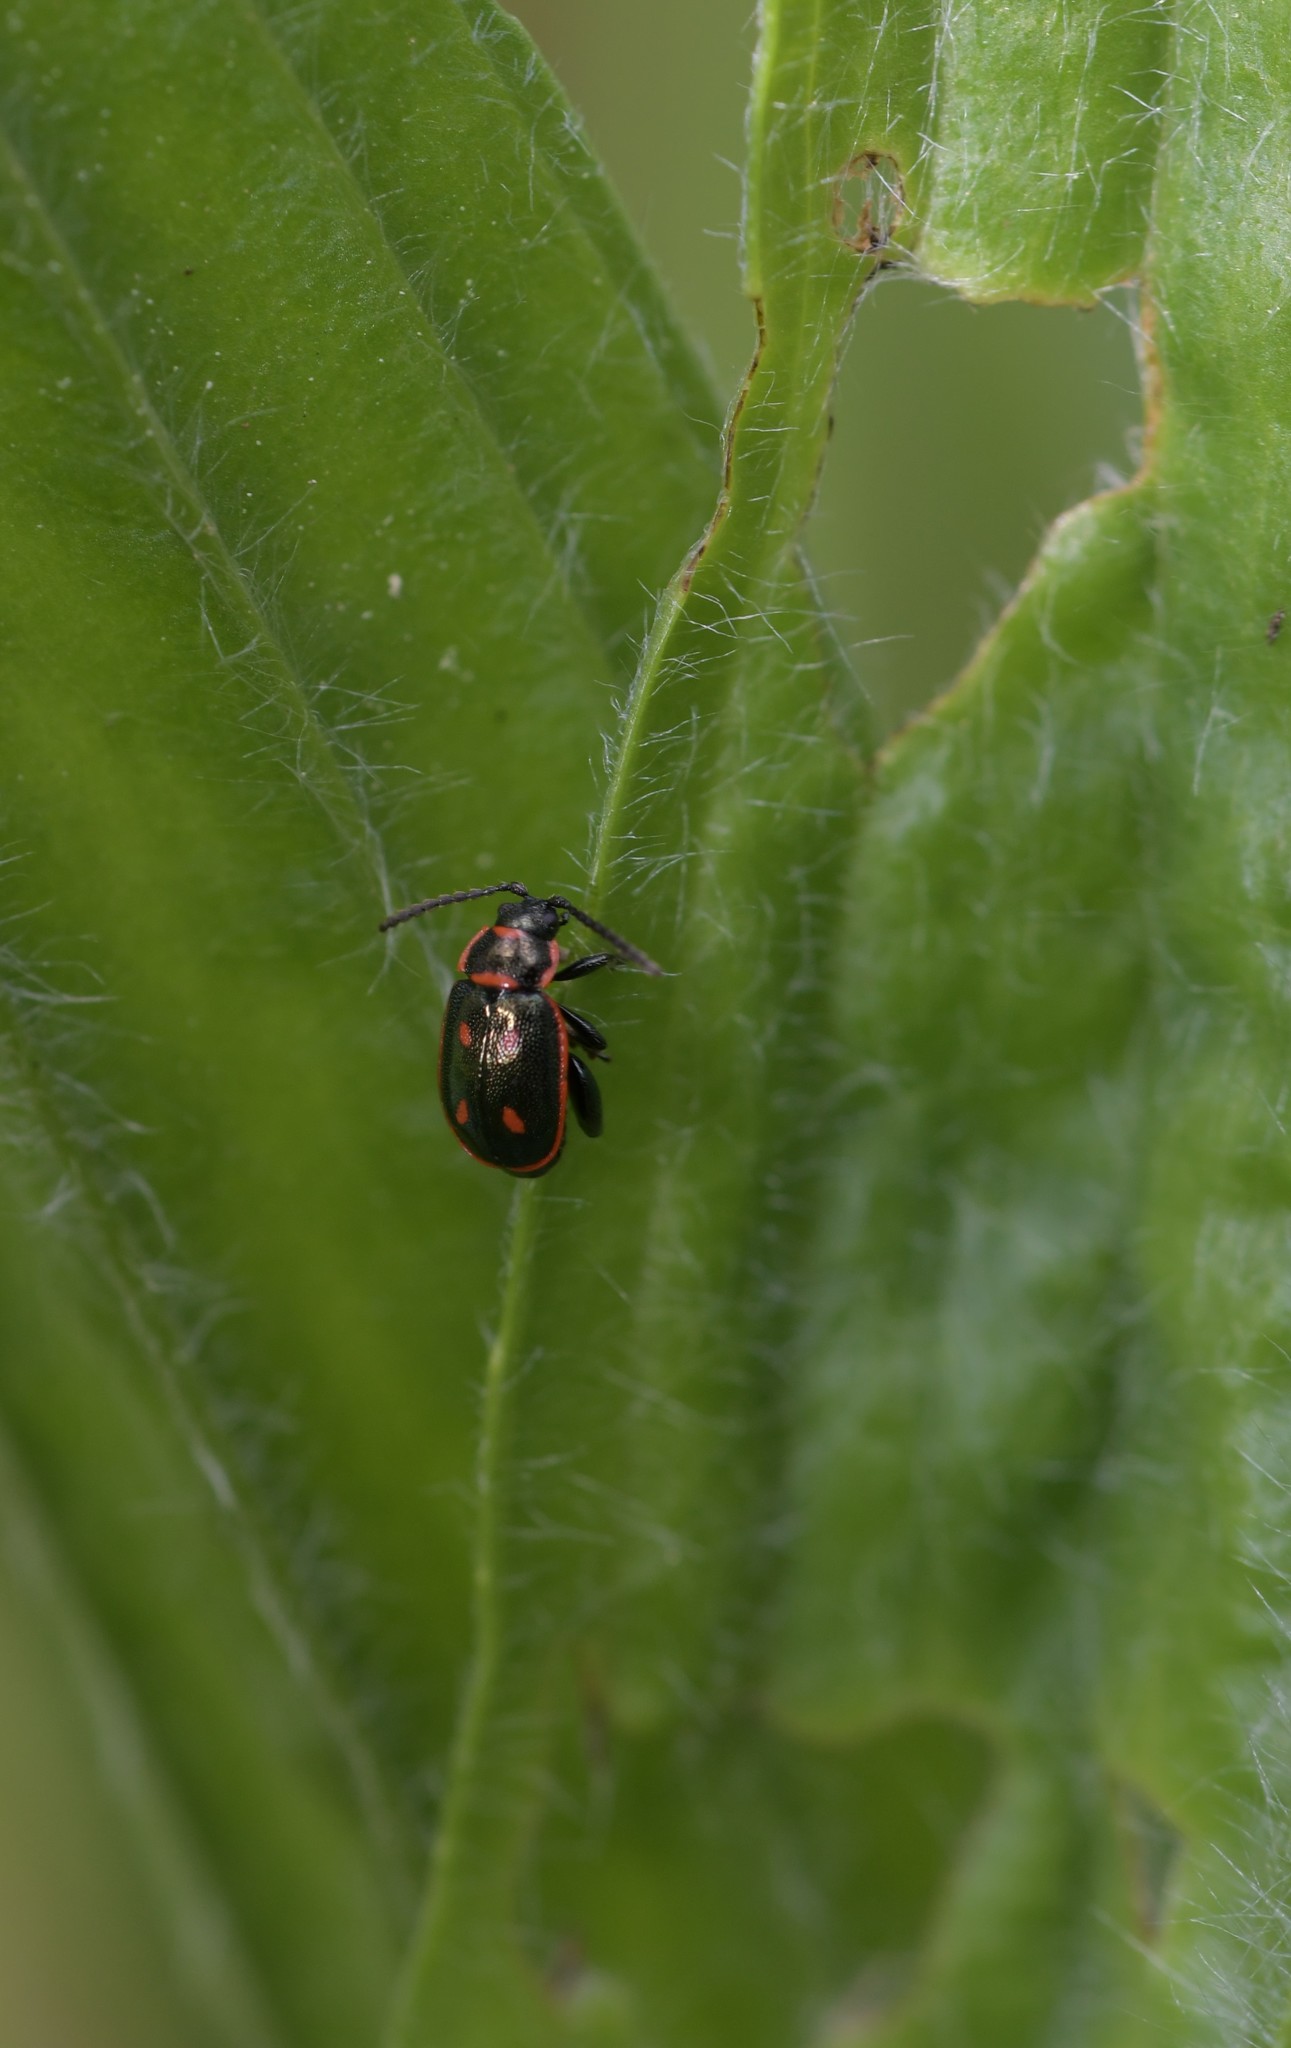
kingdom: Animalia
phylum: Arthropoda
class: Insecta
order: Coleoptera
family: Chrysomelidae
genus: Oedionychis
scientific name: Oedionychis cincta
